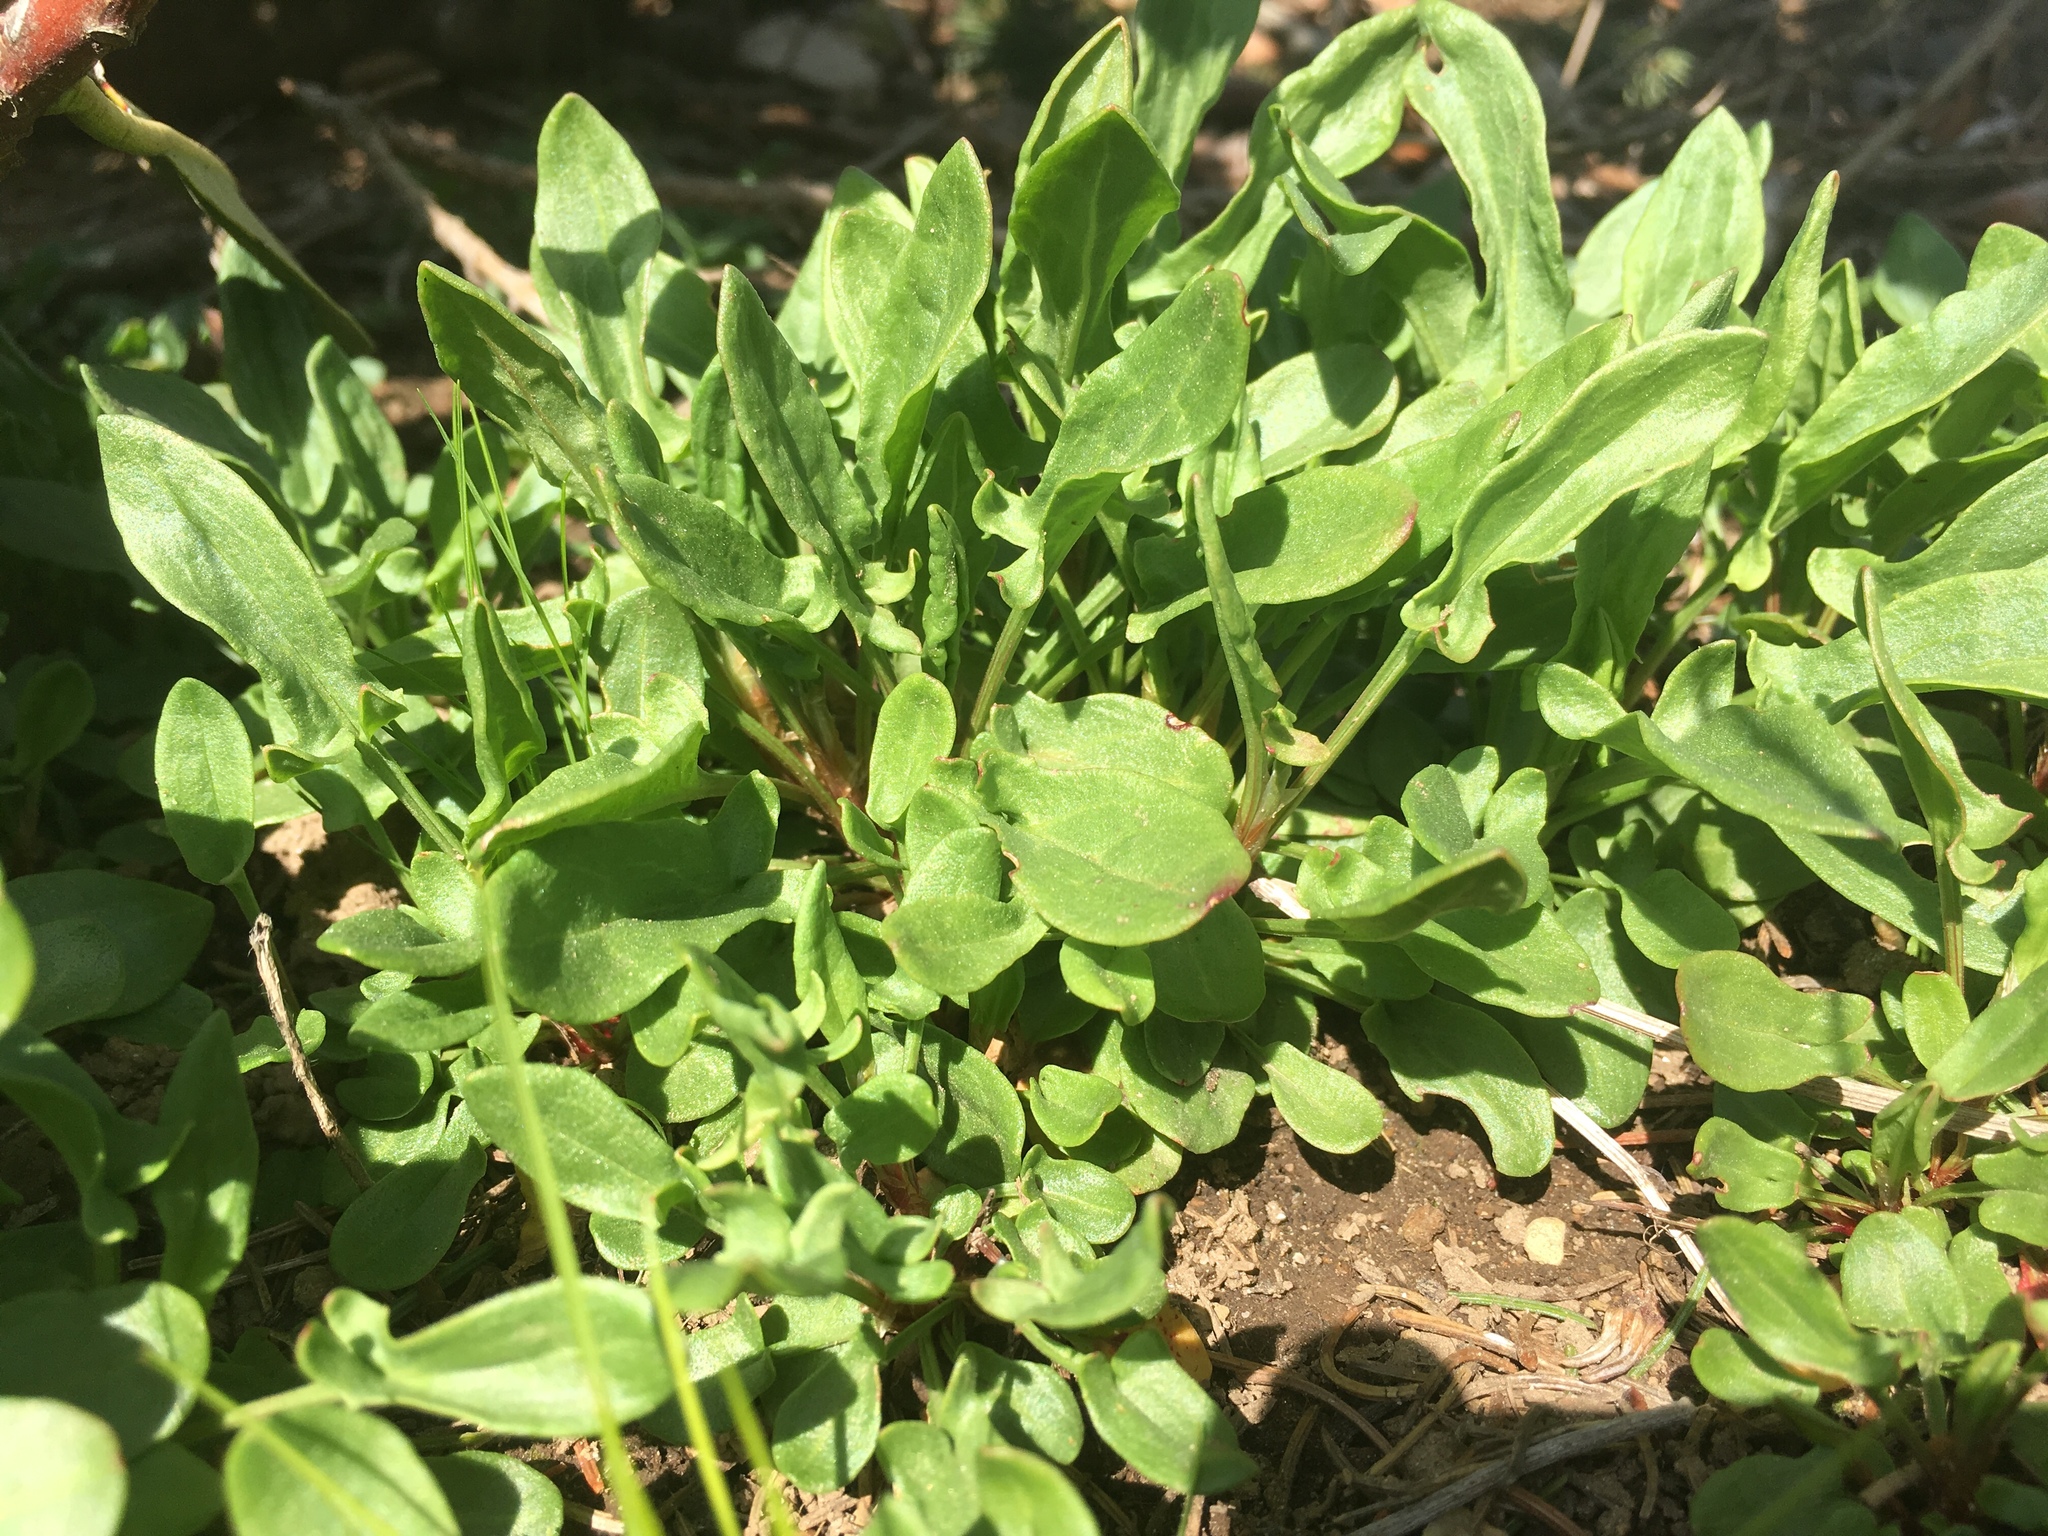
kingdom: Plantae
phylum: Tracheophyta
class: Magnoliopsida
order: Caryophyllales
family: Polygonaceae
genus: Rumex
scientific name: Rumex acetosella
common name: Common sheep sorrel
